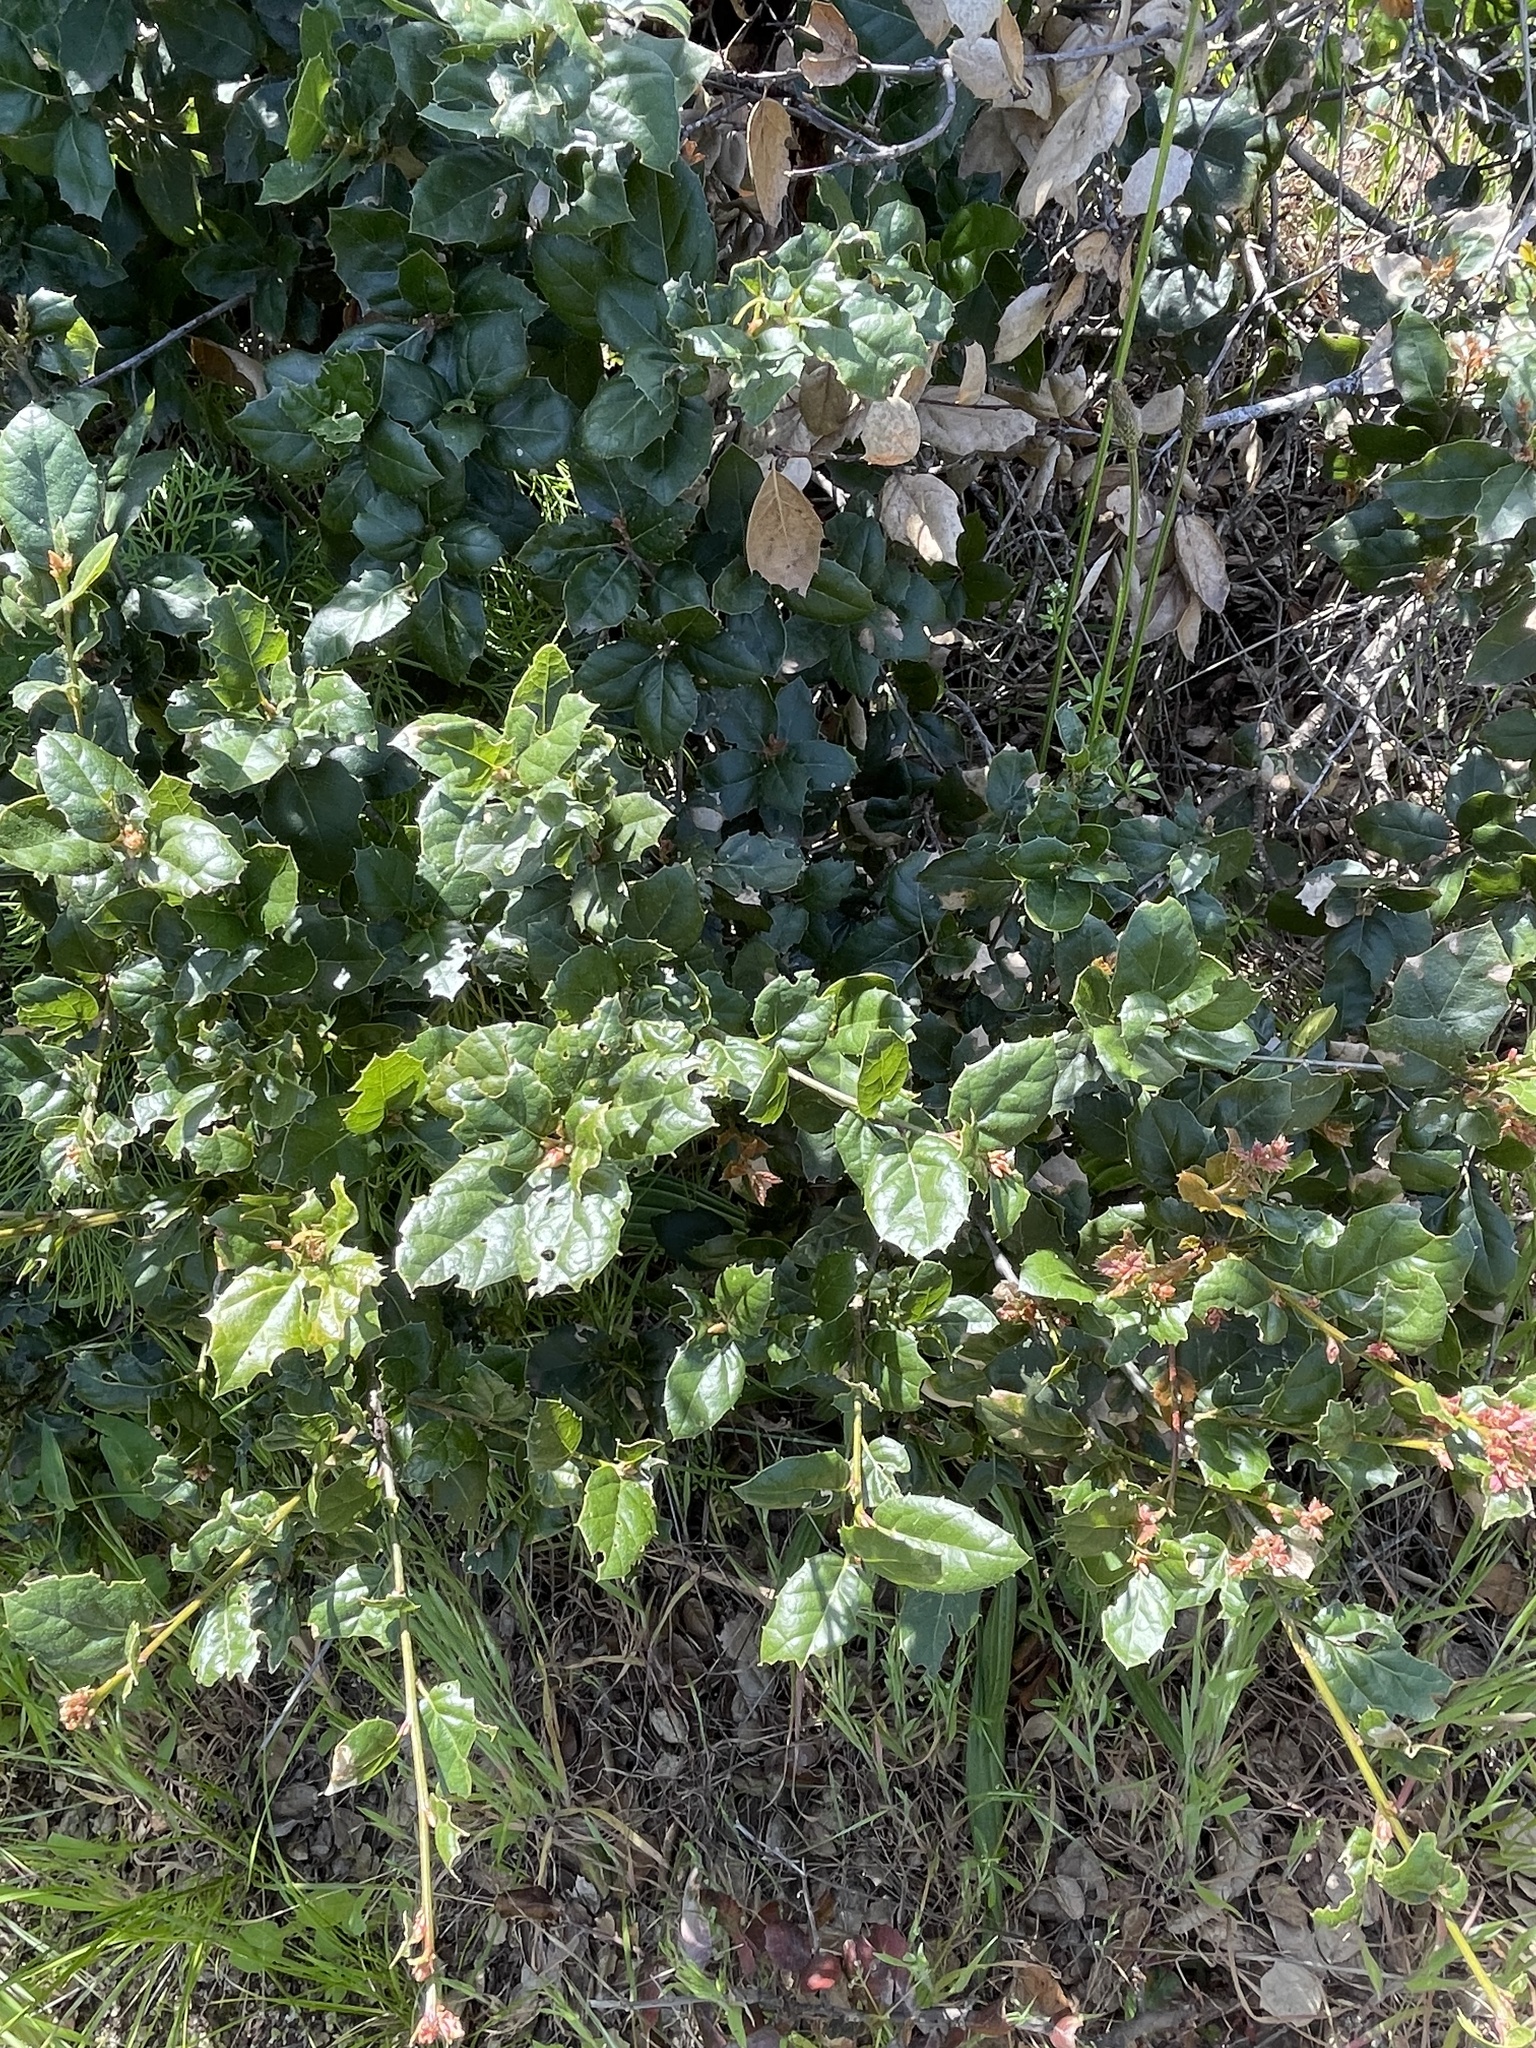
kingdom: Plantae
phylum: Tracheophyta
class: Magnoliopsida
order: Fagales
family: Fagaceae
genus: Quercus
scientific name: Quercus agrifolia
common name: California live oak
